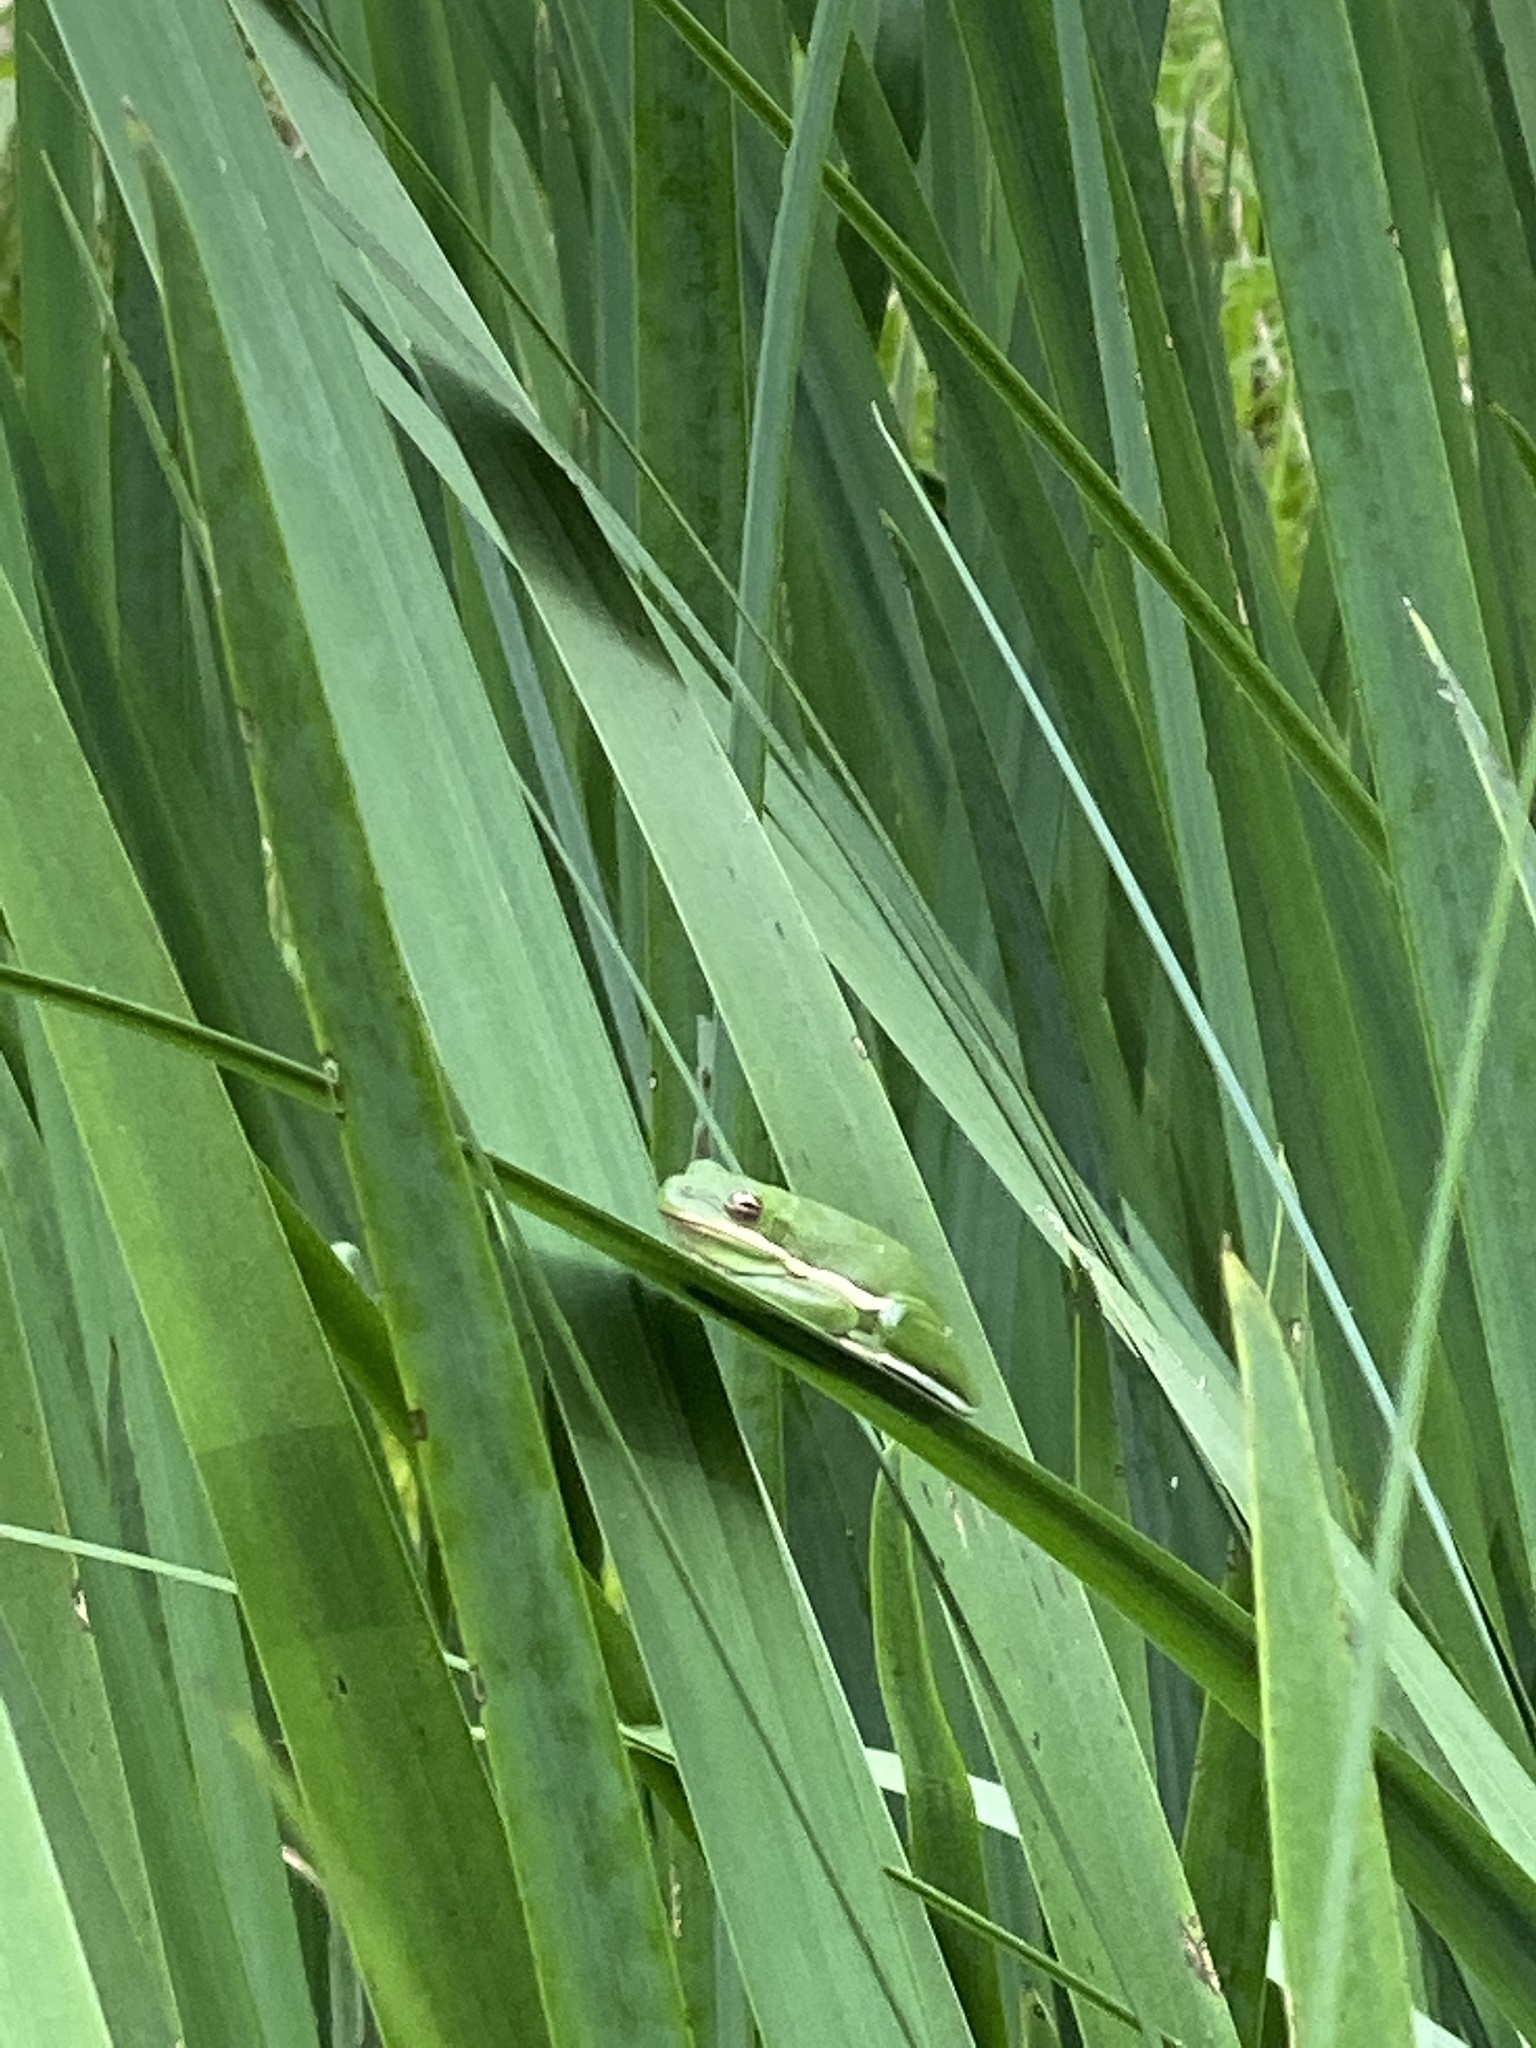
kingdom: Animalia
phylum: Chordata
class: Amphibia
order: Anura
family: Hylidae
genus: Dryophytes
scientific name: Dryophytes cinereus
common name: Green treefrog
